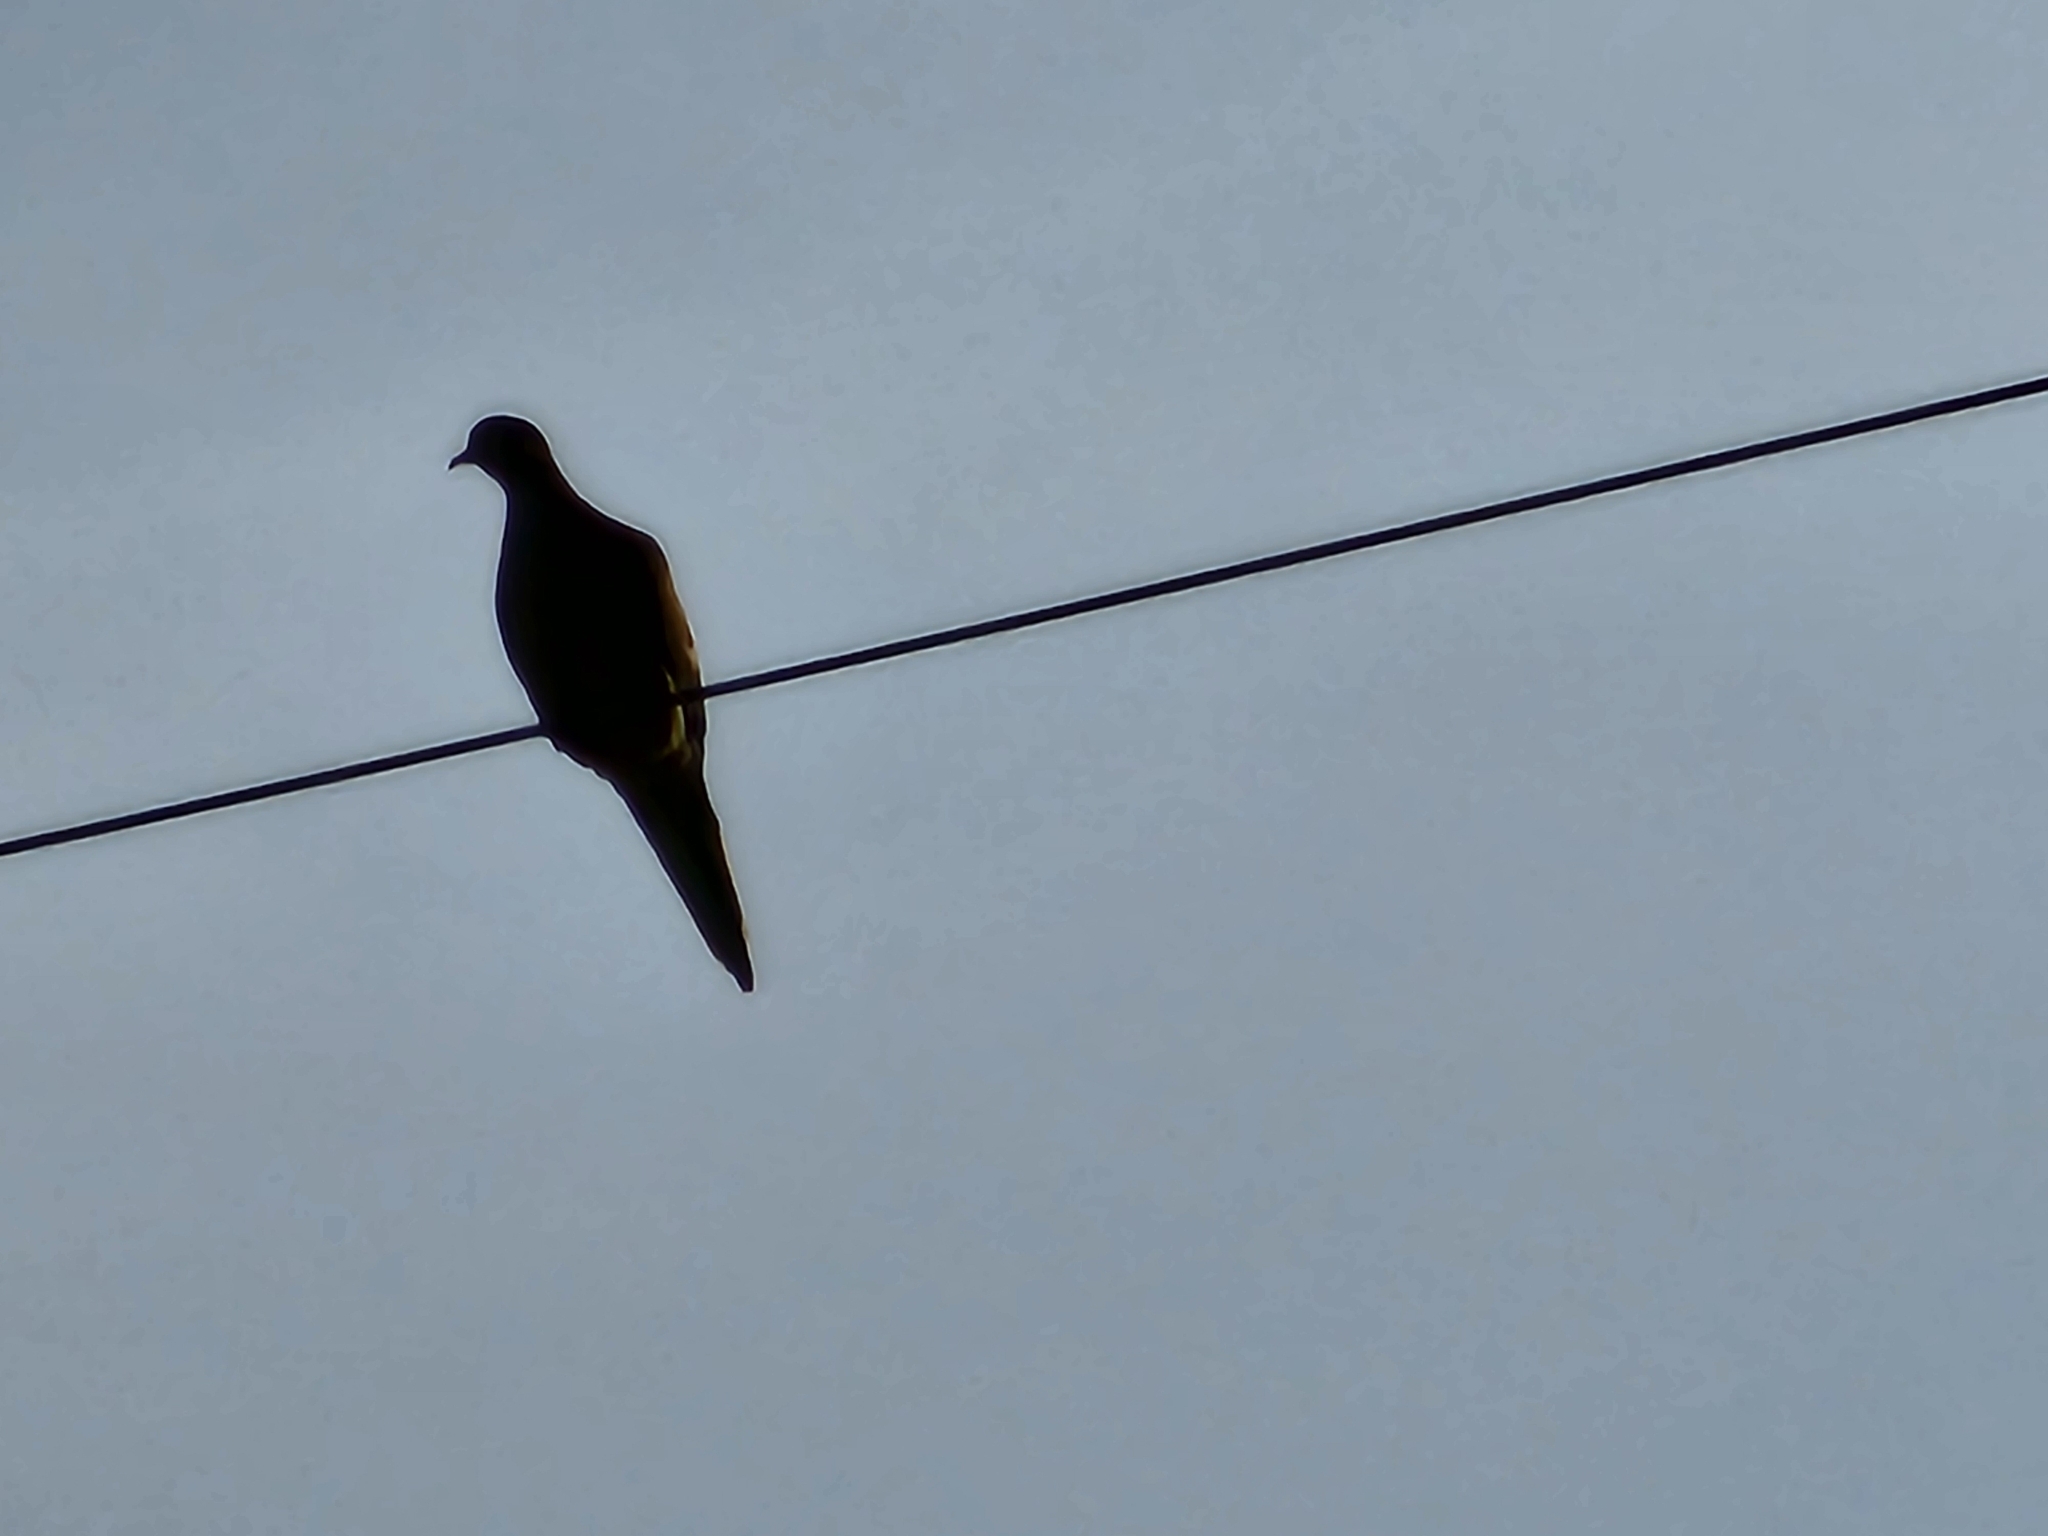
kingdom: Animalia
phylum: Chordata
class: Aves
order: Columbiformes
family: Columbidae
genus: Zenaida
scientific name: Zenaida macroura
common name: Mourning dove
